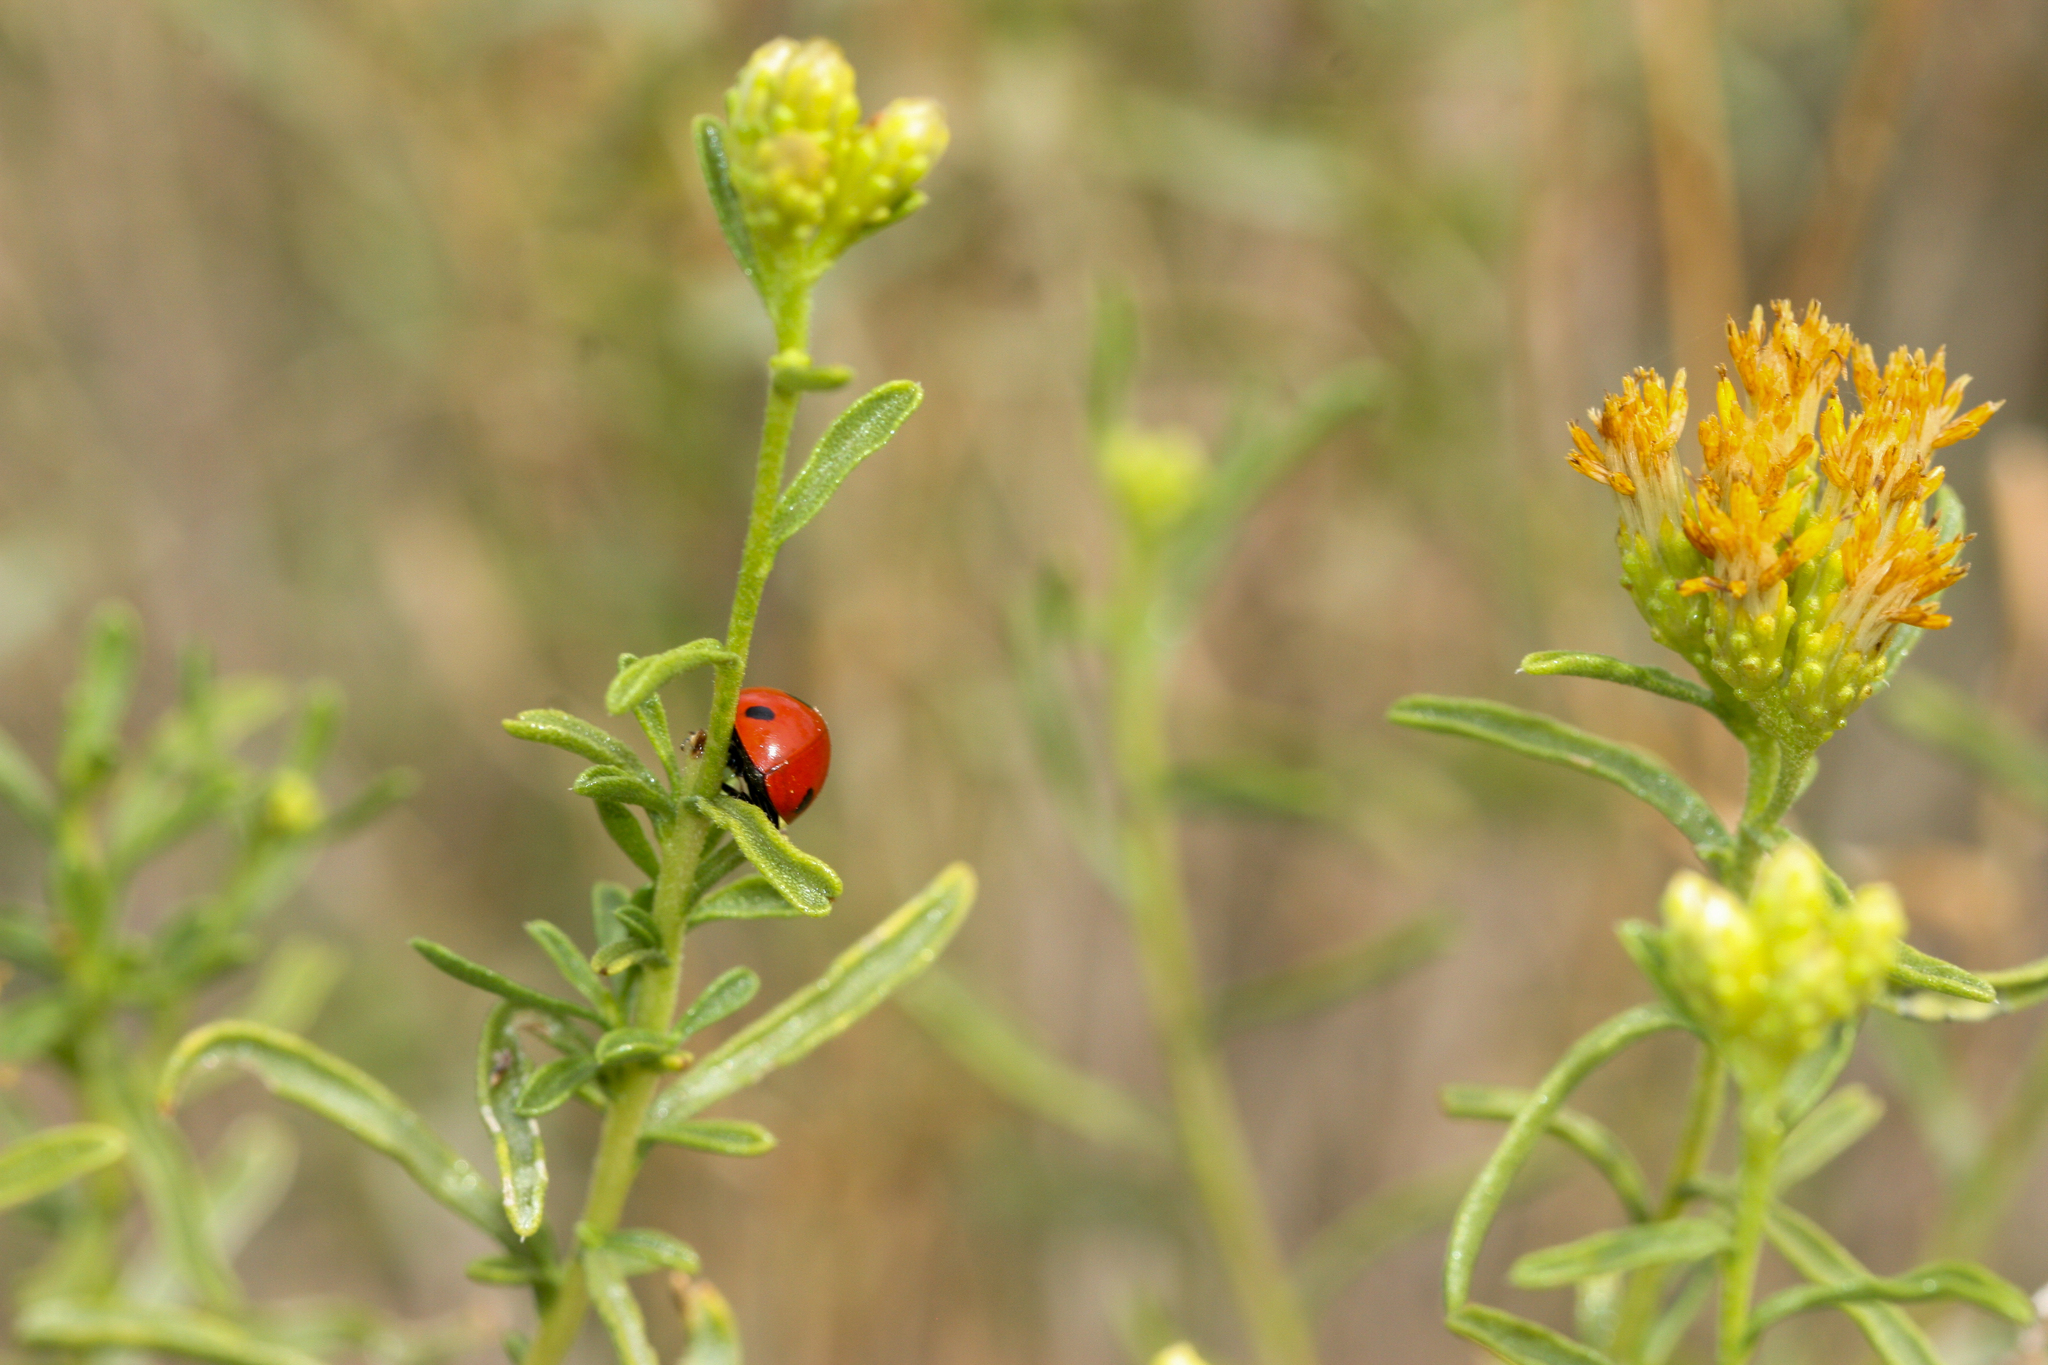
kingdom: Animalia
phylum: Arthropoda
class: Insecta
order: Coleoptera
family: Coccinellidae
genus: Coccinella
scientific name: Coccinella septempunctata
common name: Sevenspotted lady beetle
